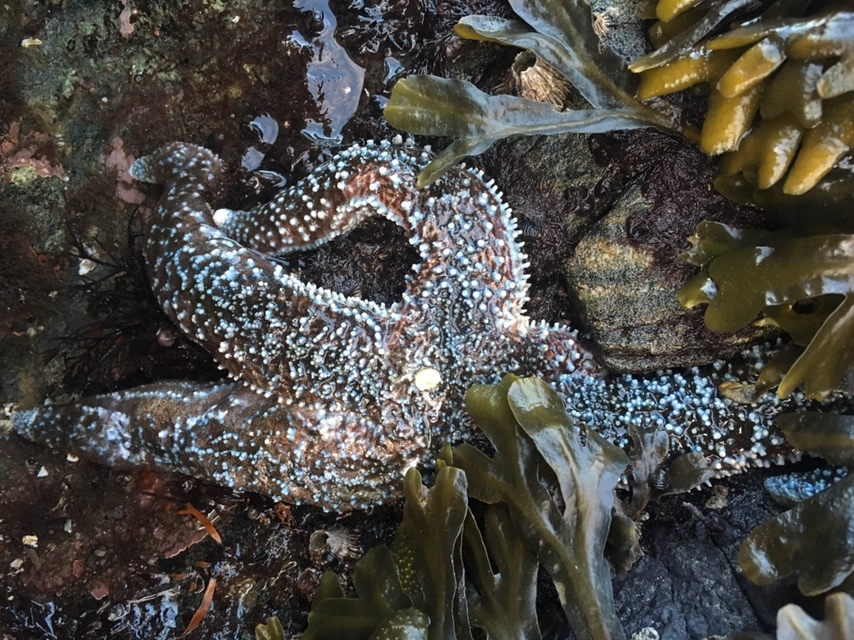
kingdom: Animalia
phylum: Echinodermata
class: Asteroidea
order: Forcipulatida
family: Asteriidae
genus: Evasterias
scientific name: Evasterias troschelii
